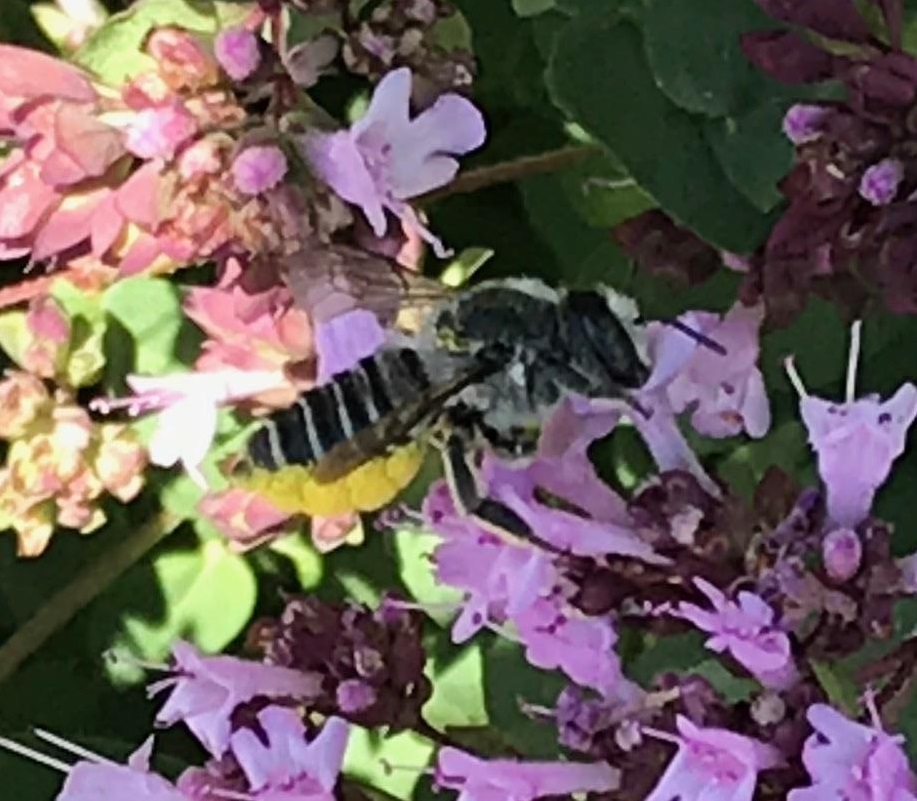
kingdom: Animalia
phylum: Arthropoda
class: Insecta
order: Hymenoptera
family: Megachilidae
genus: Megachile
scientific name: Megachile texana
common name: Texas leafcutter
